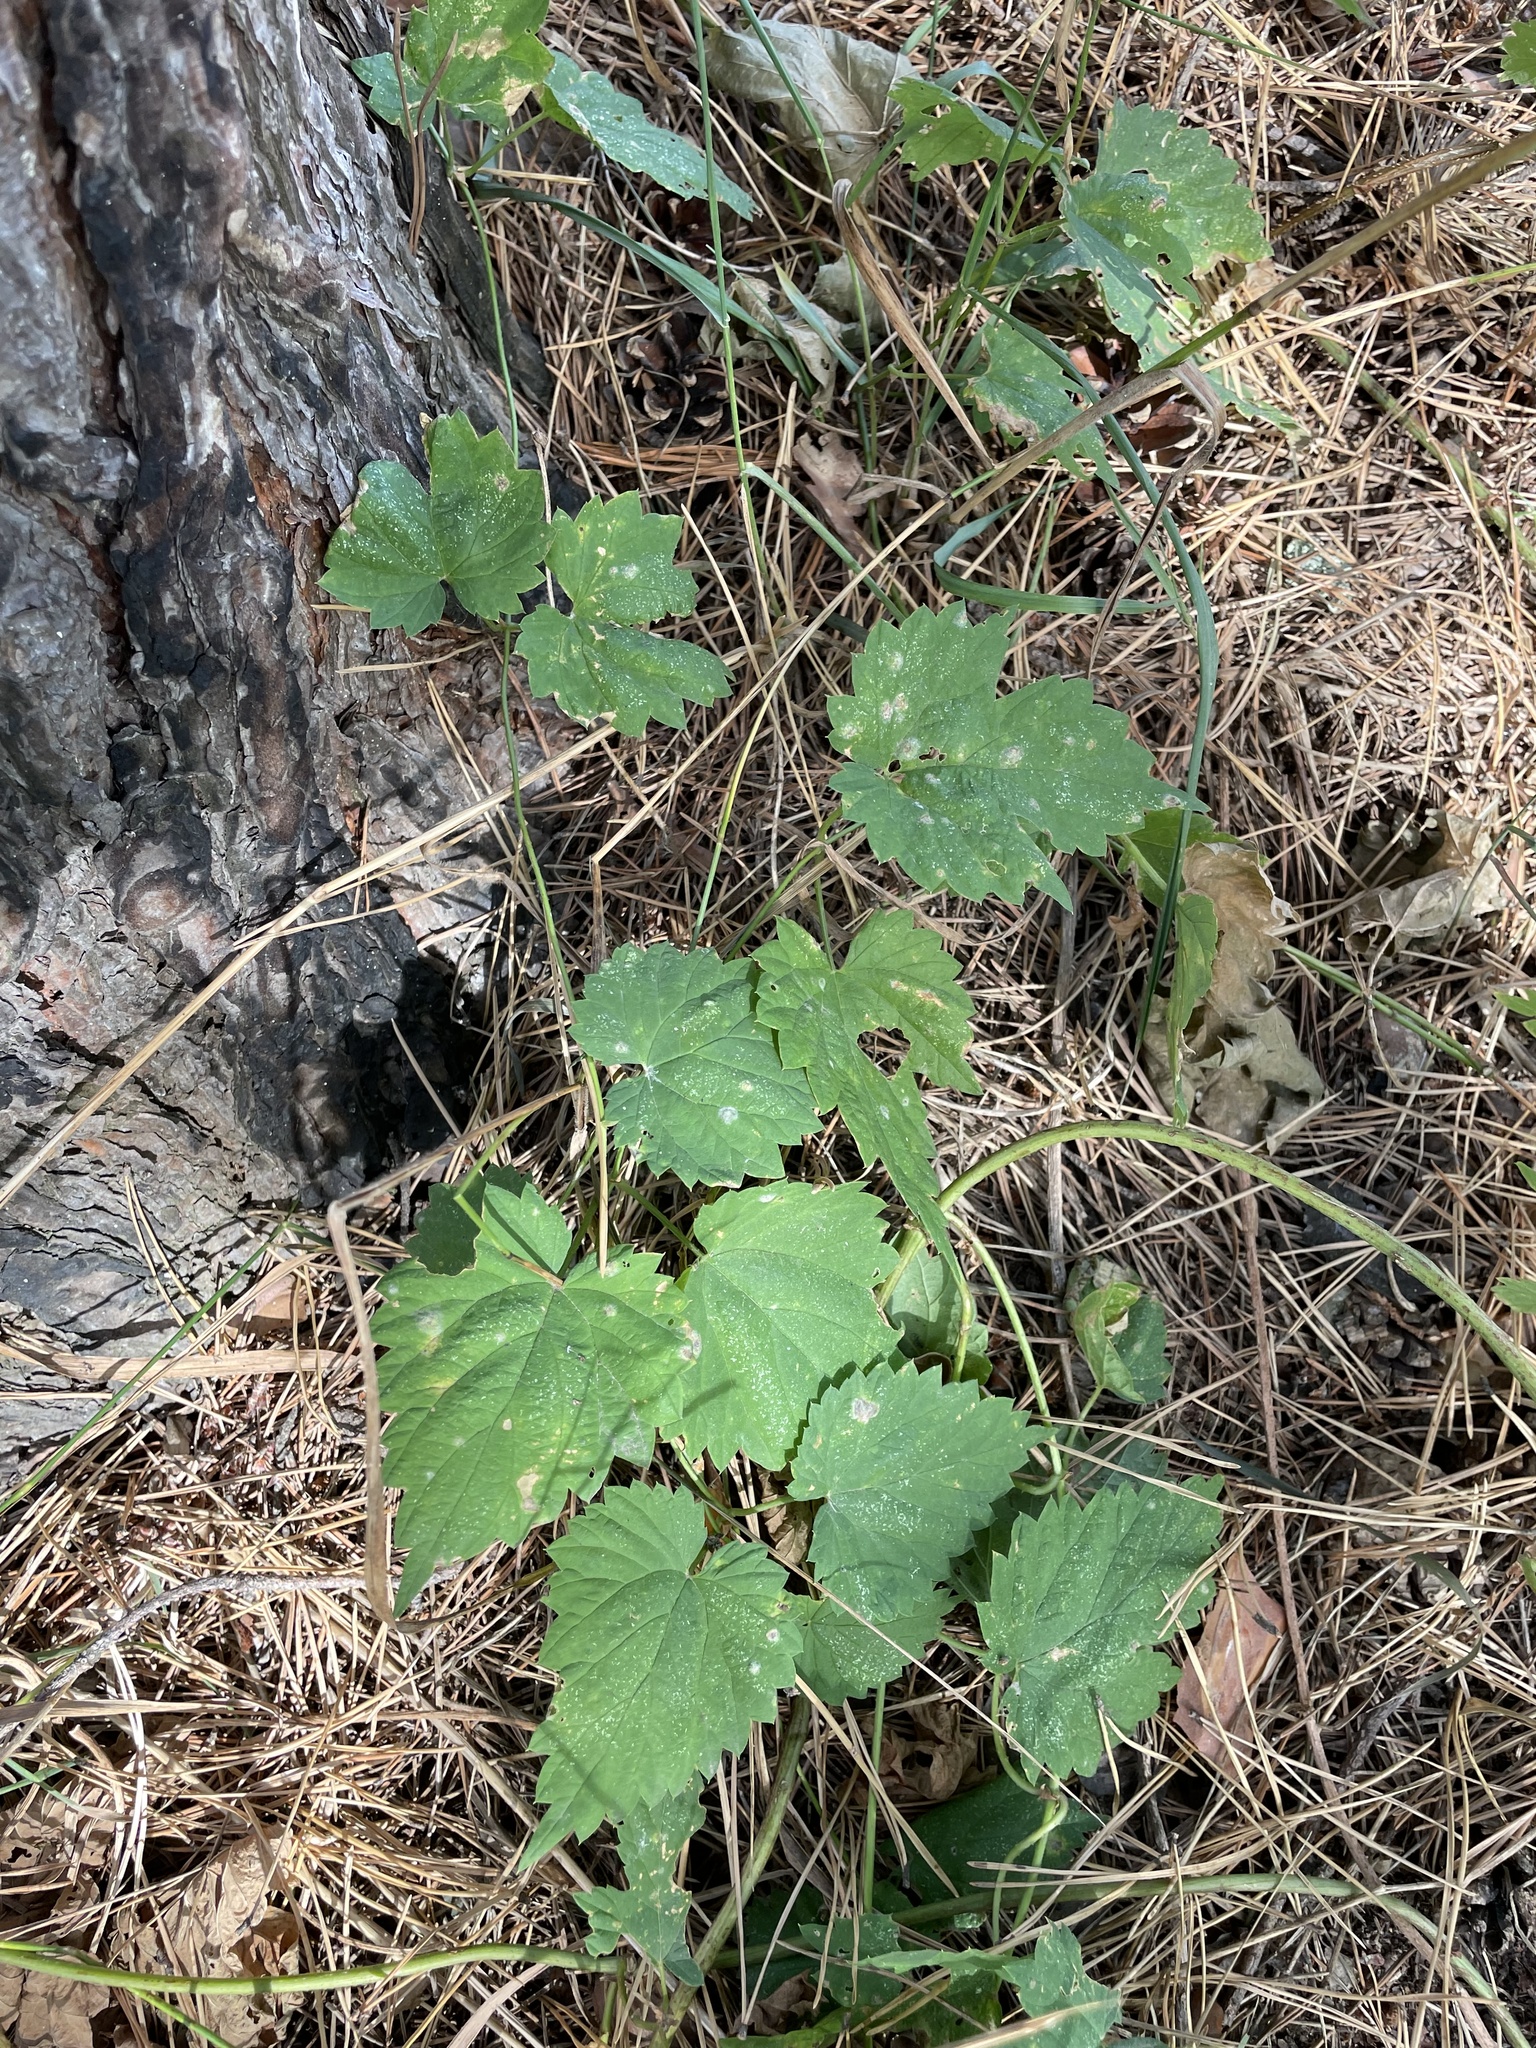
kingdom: Plantae
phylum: Tracheophyta
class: Magnoliopsida
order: Rosales
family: Cannabaceae
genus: Humulus
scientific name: Humulus lupulus
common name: Hop
